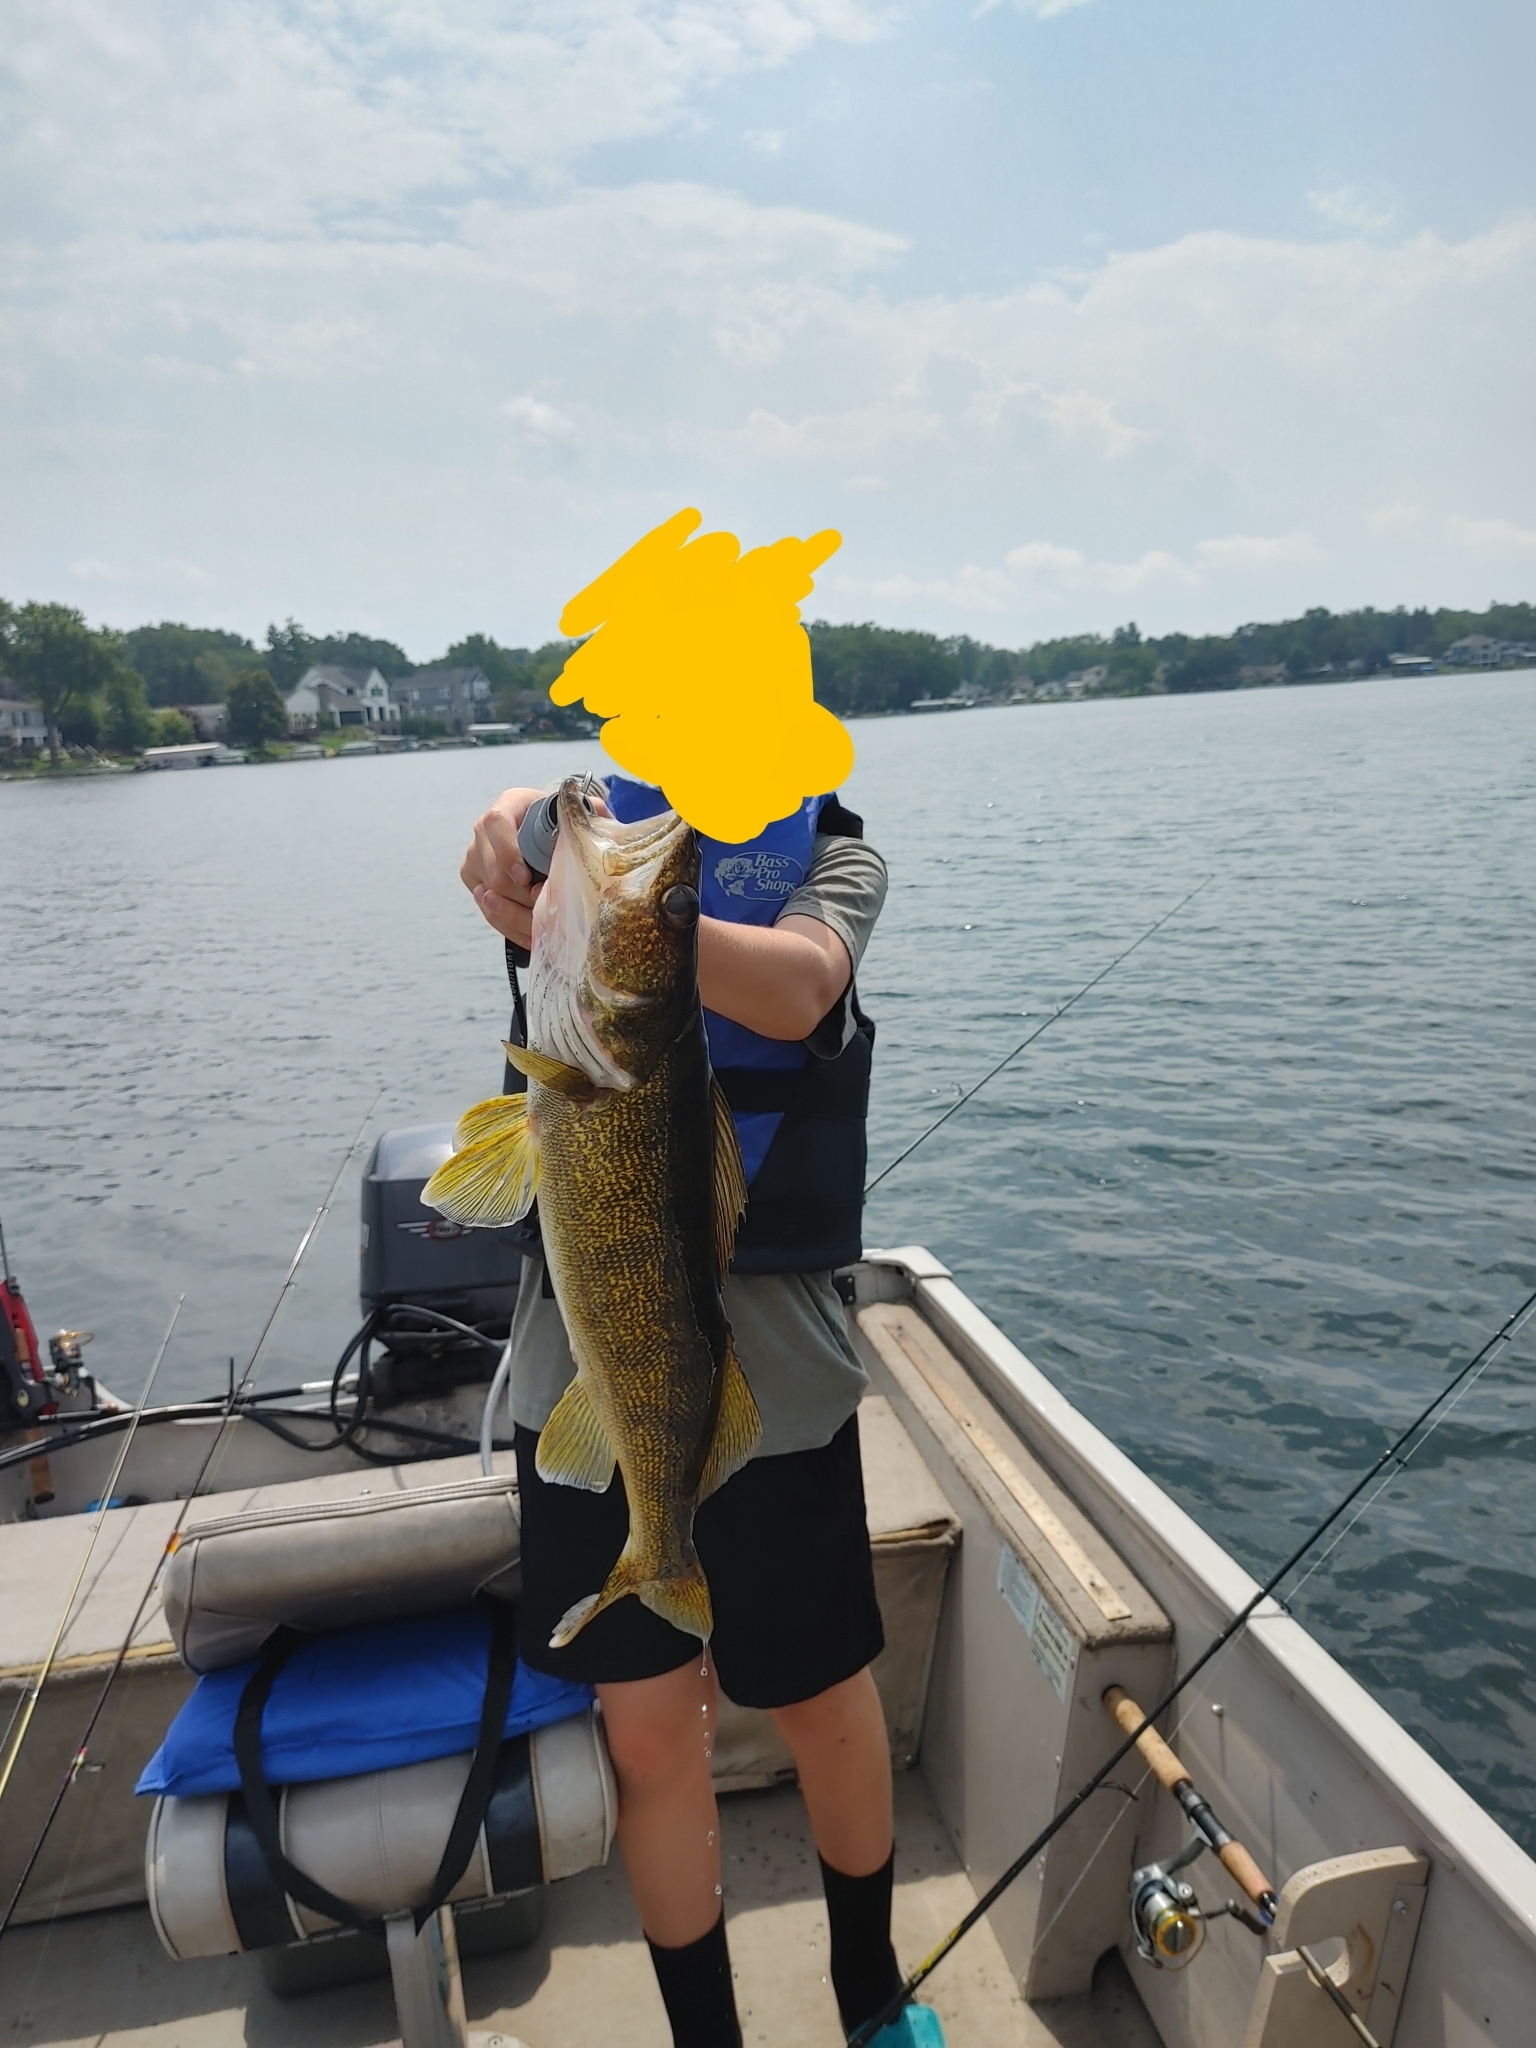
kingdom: Animalia
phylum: Chordata
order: Perciformes
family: Percidae
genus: Sander
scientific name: Sander vitreus
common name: Walleye
